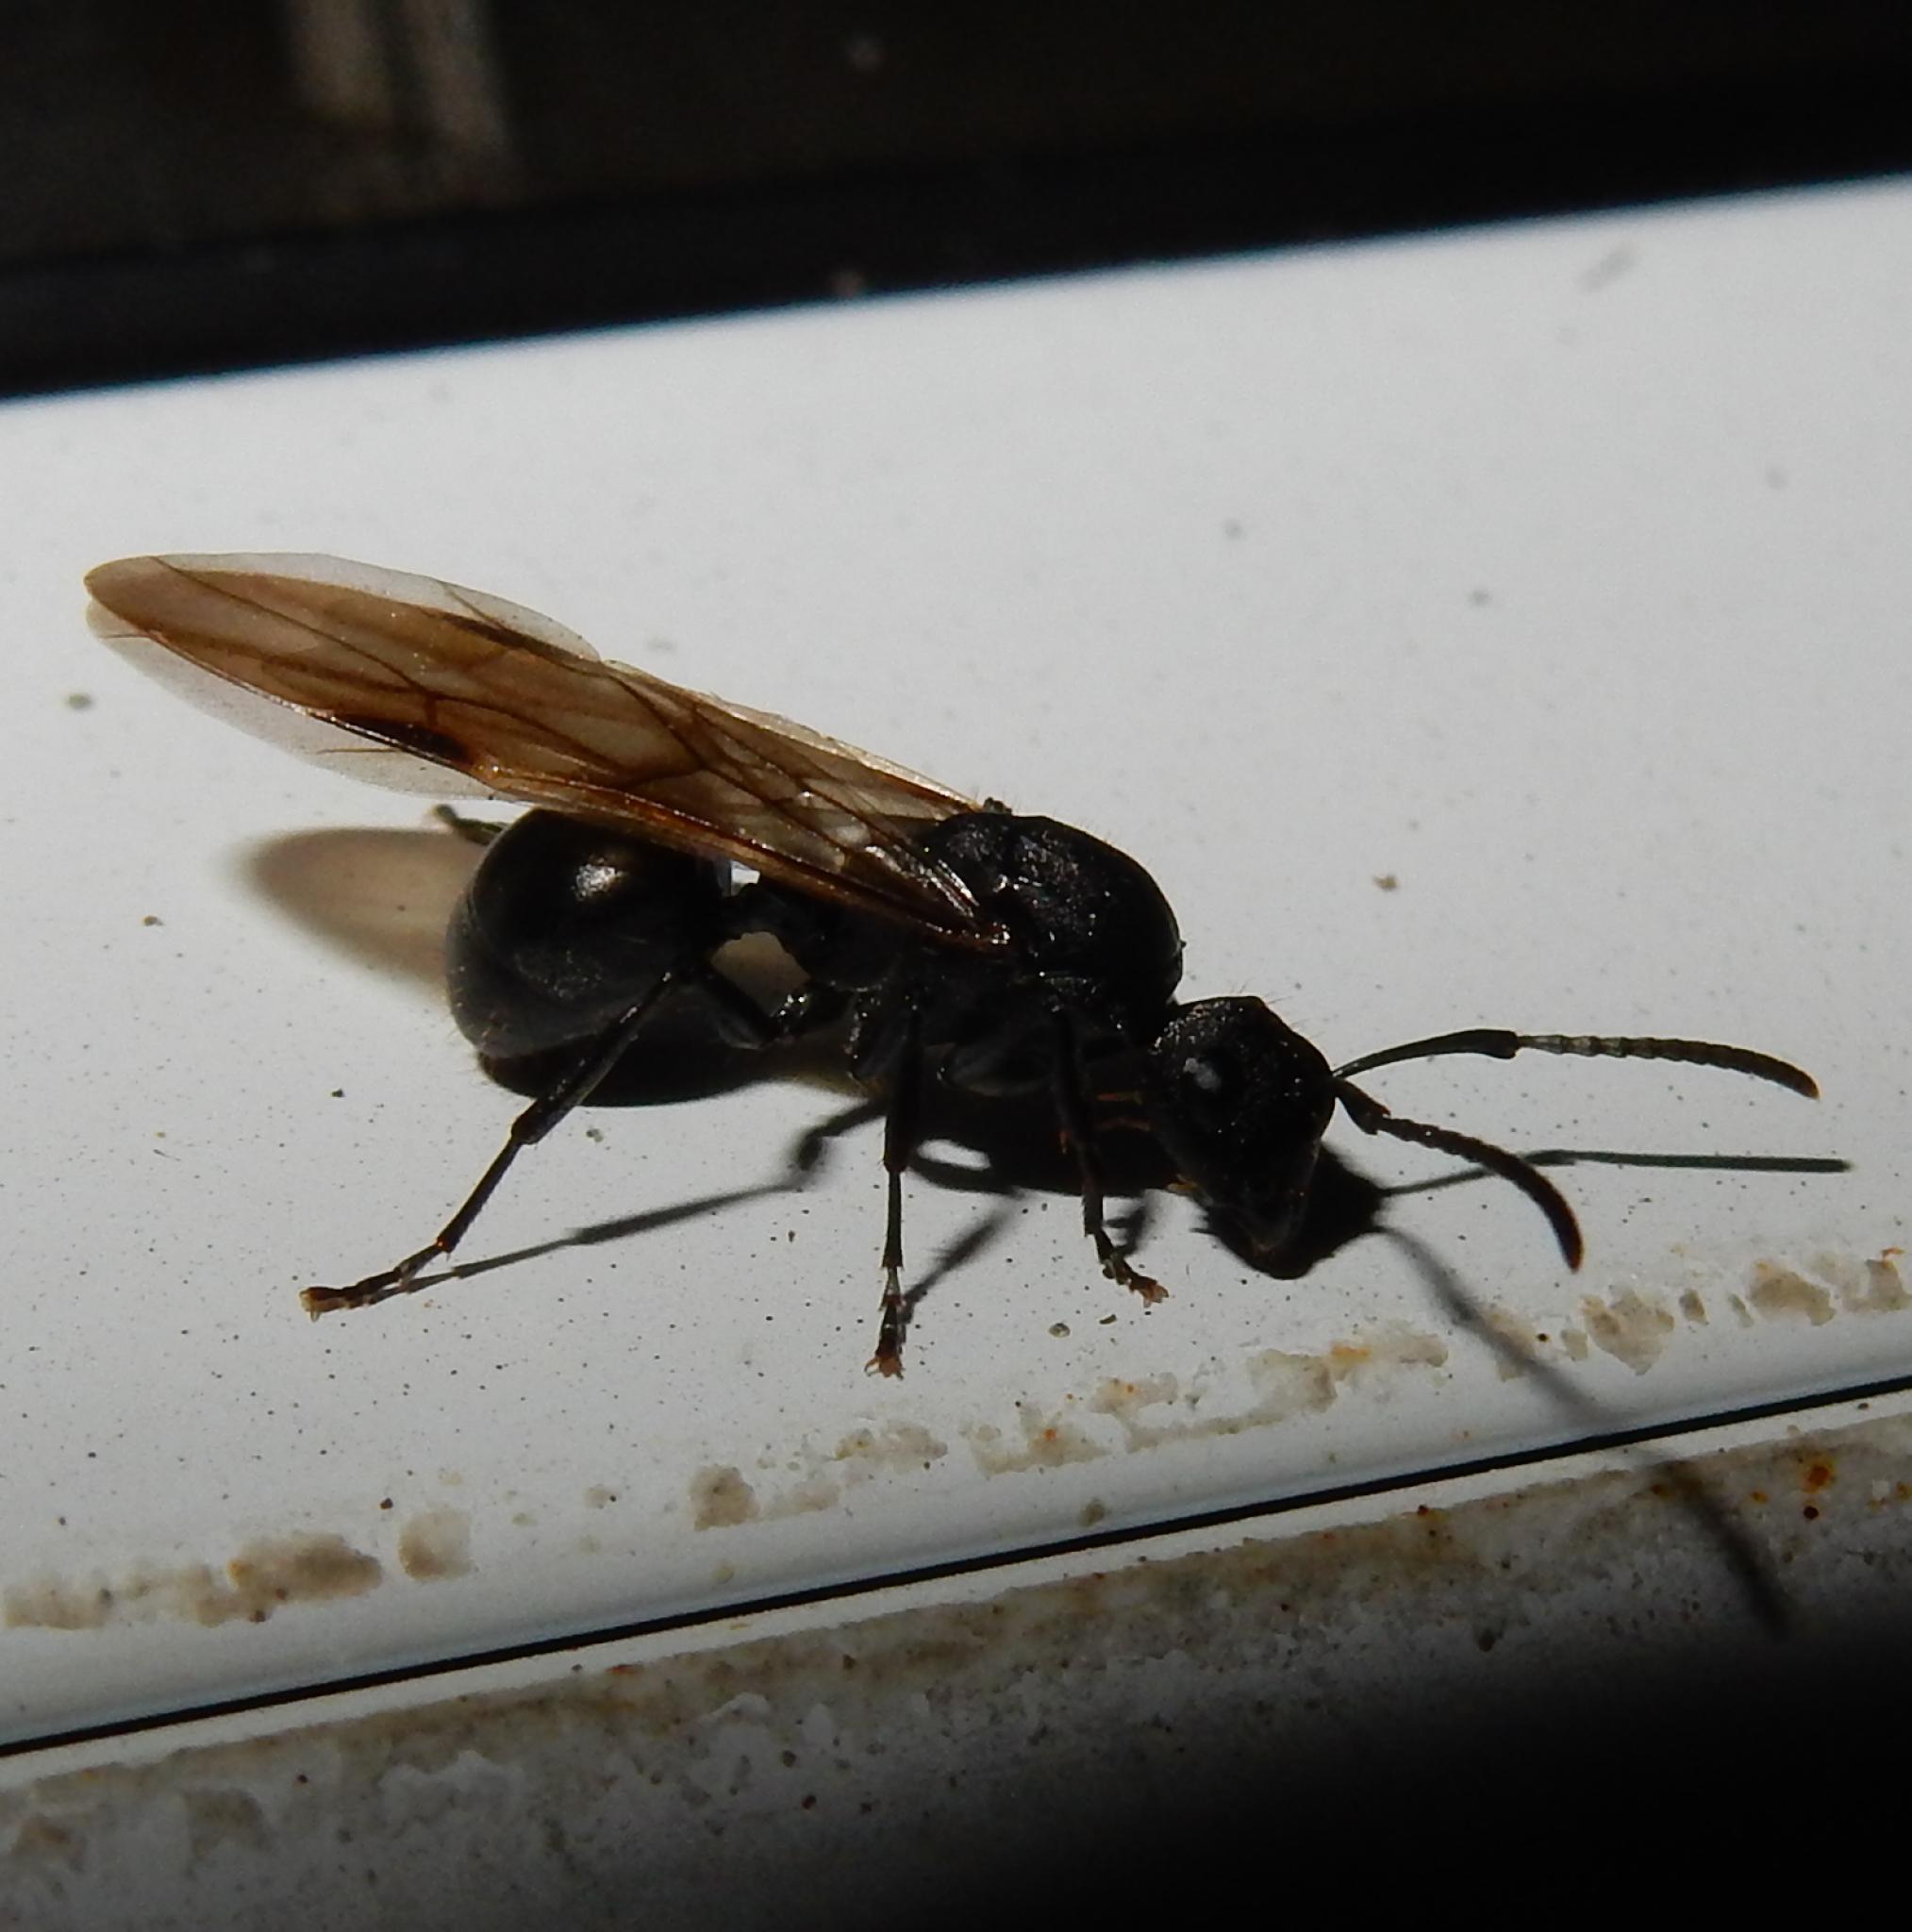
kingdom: Animalia
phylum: Arthropoda
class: Insecta
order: Hymenoptera
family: Formicidae
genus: Polyrhachis
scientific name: Polyrhachis spinicola
